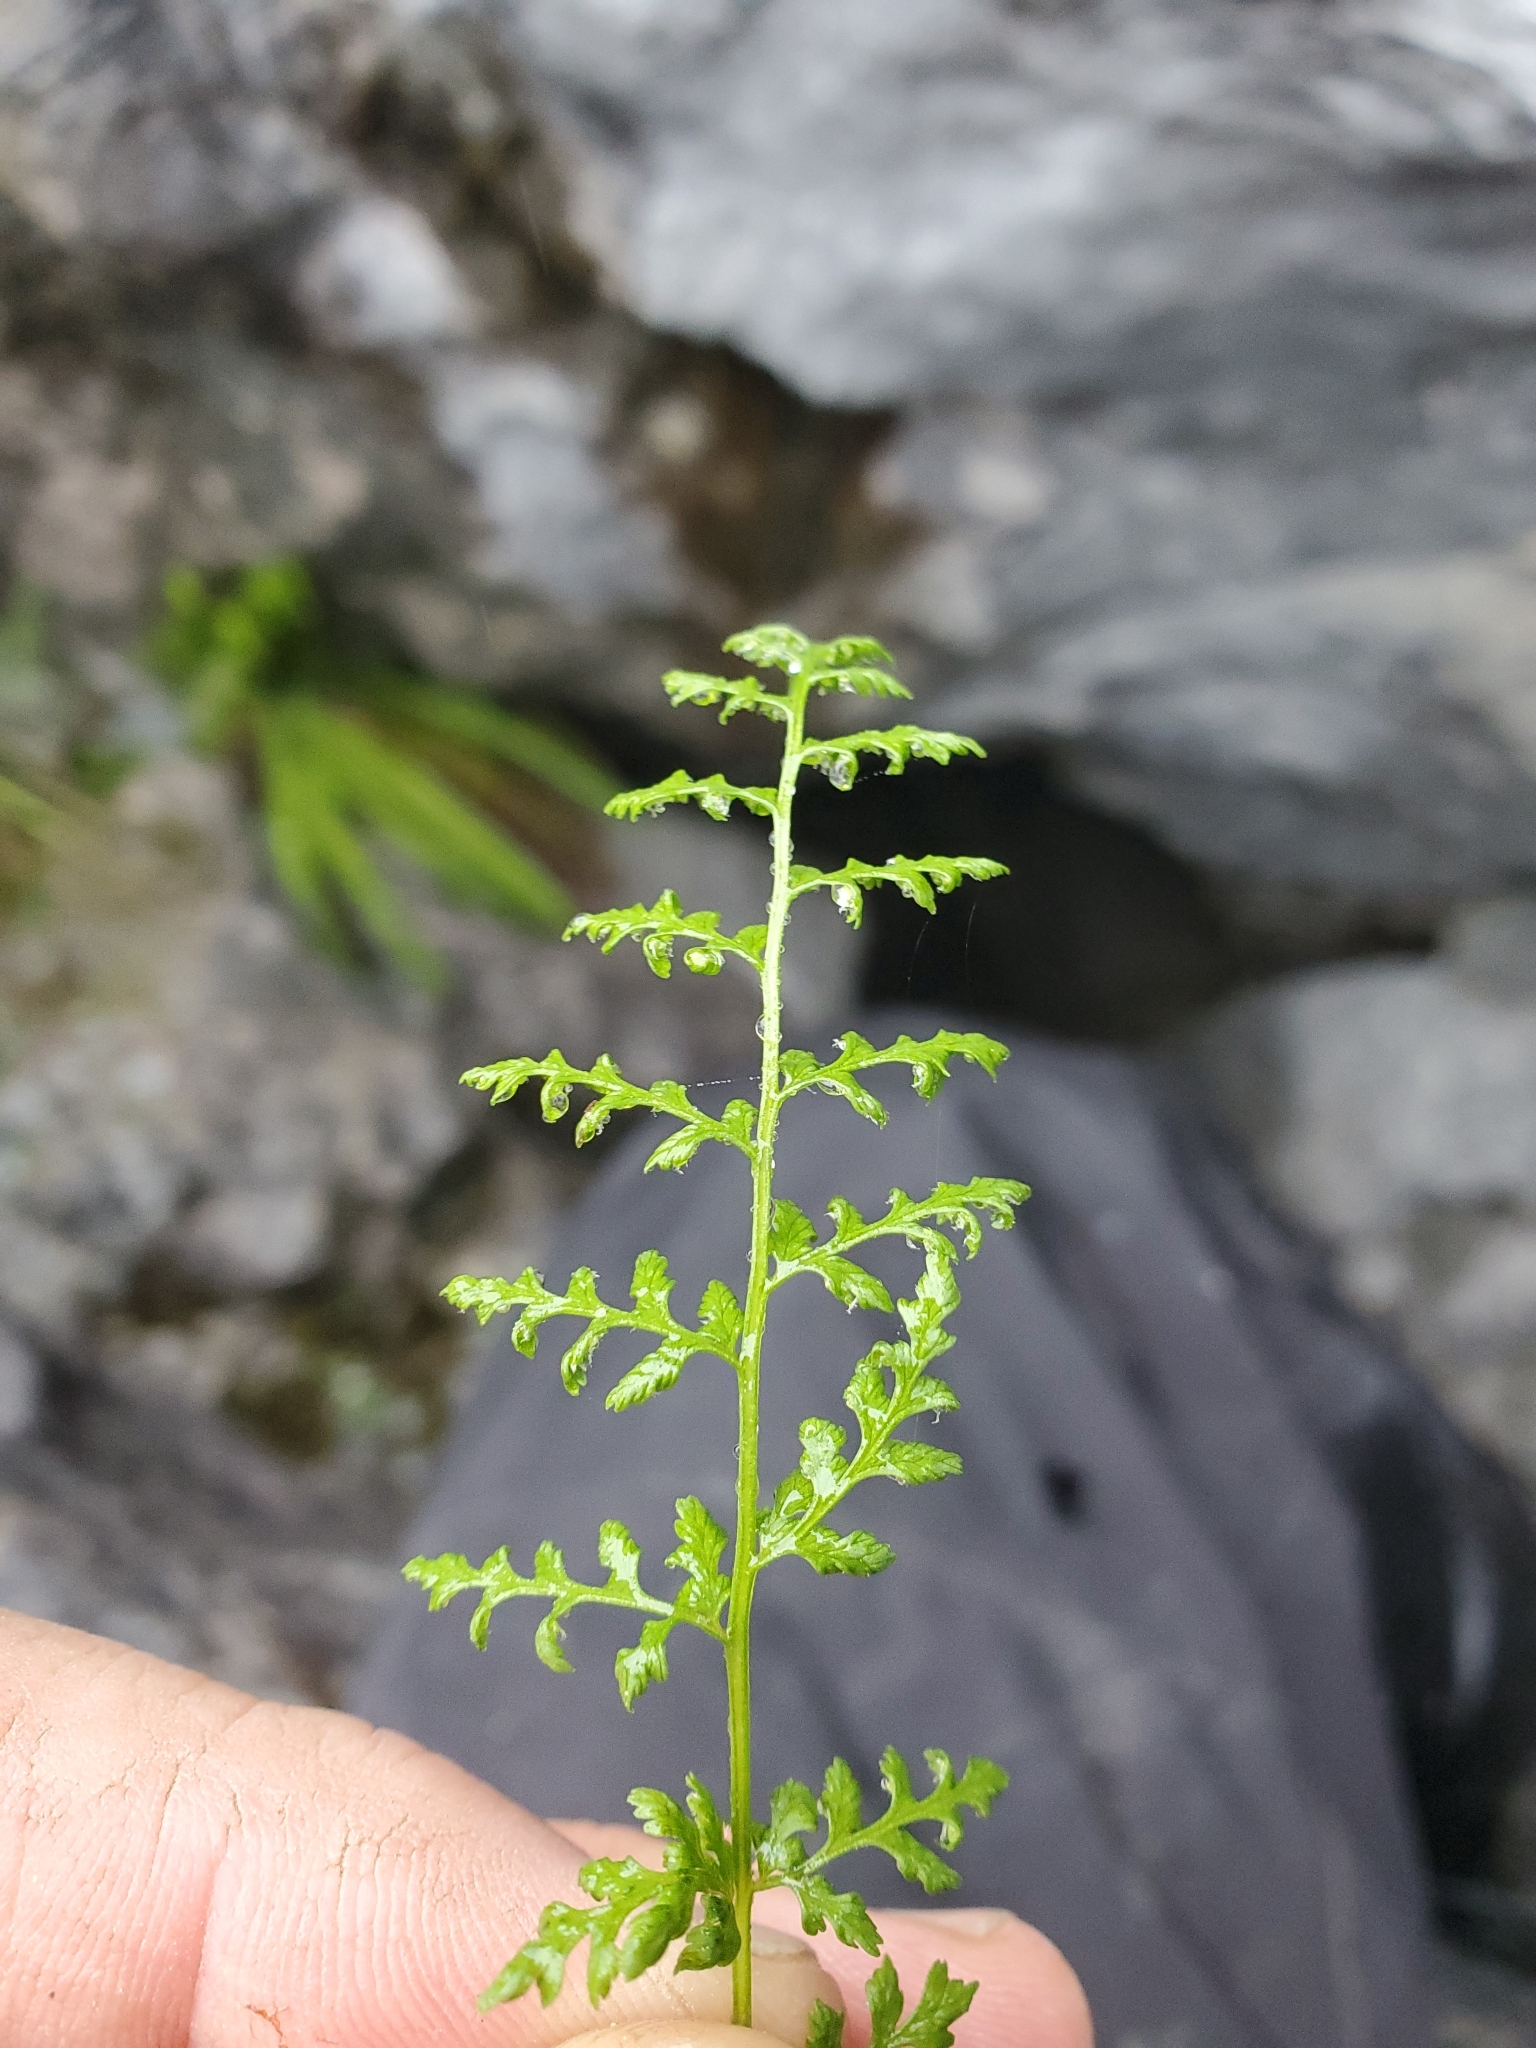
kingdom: Plantae
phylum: Tracheophyta
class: Polypodiopsida
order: Polypodiales
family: Cystopteridaceae
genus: Cystopteris
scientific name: Cystopteris fragilis
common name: Brittle bladder fern
